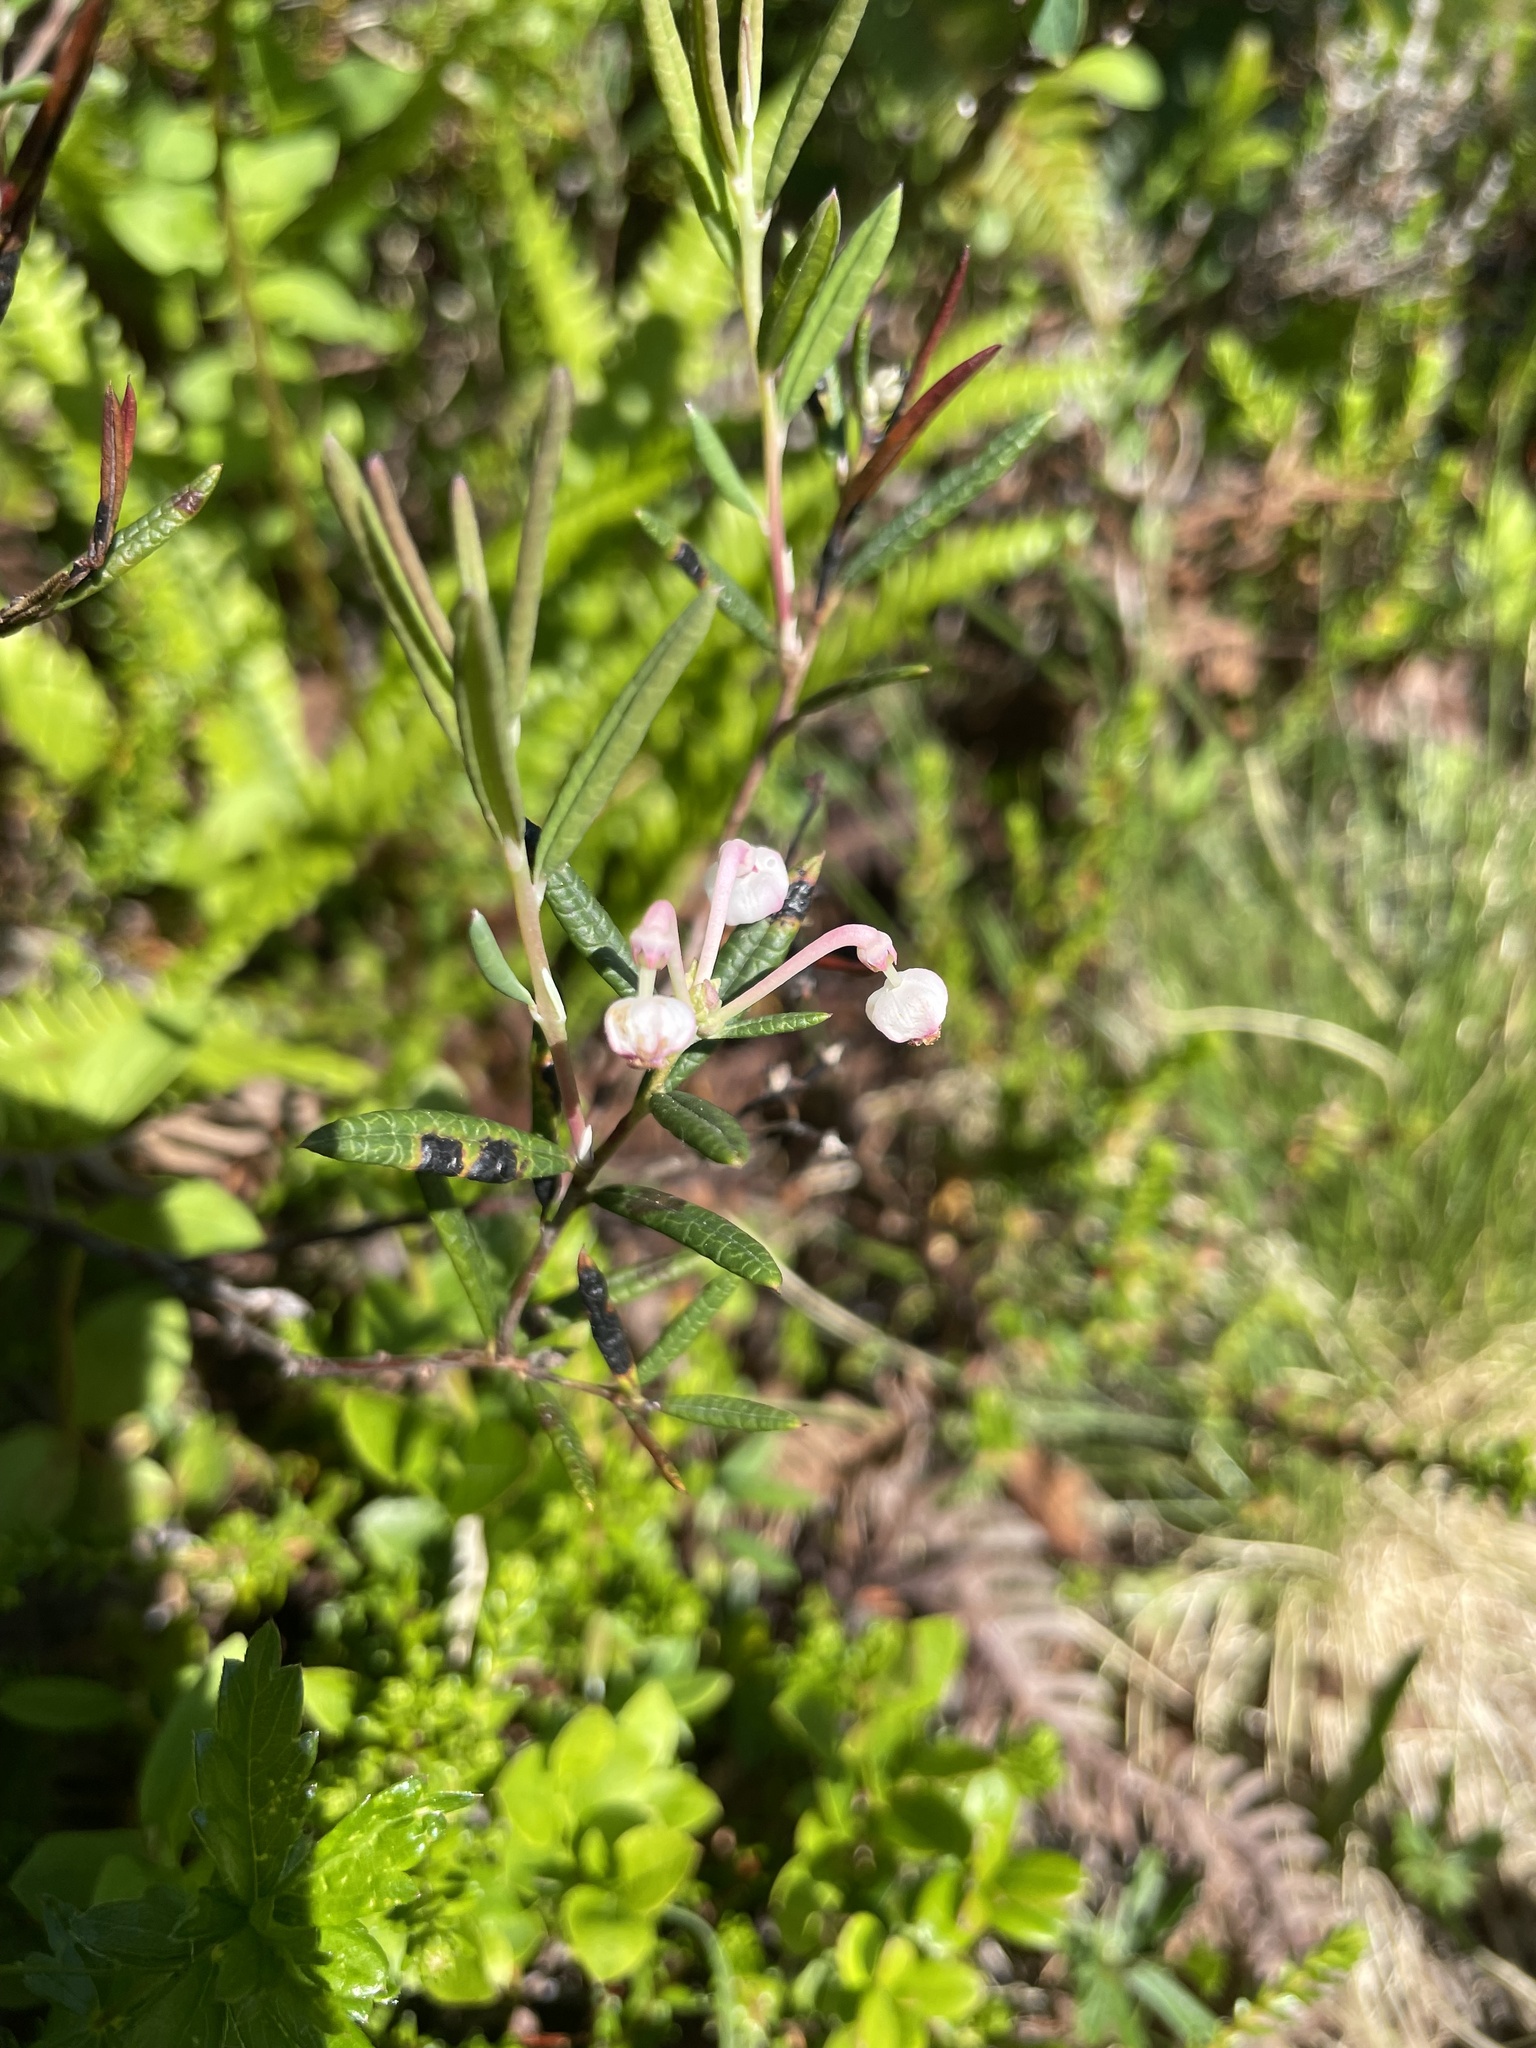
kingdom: Plantae
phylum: Tracheophyta
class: Magnoliopsida
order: Ericales
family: Ericaceae
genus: Andromeda
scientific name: Andromeda polifolia
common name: Bog-rosemary
